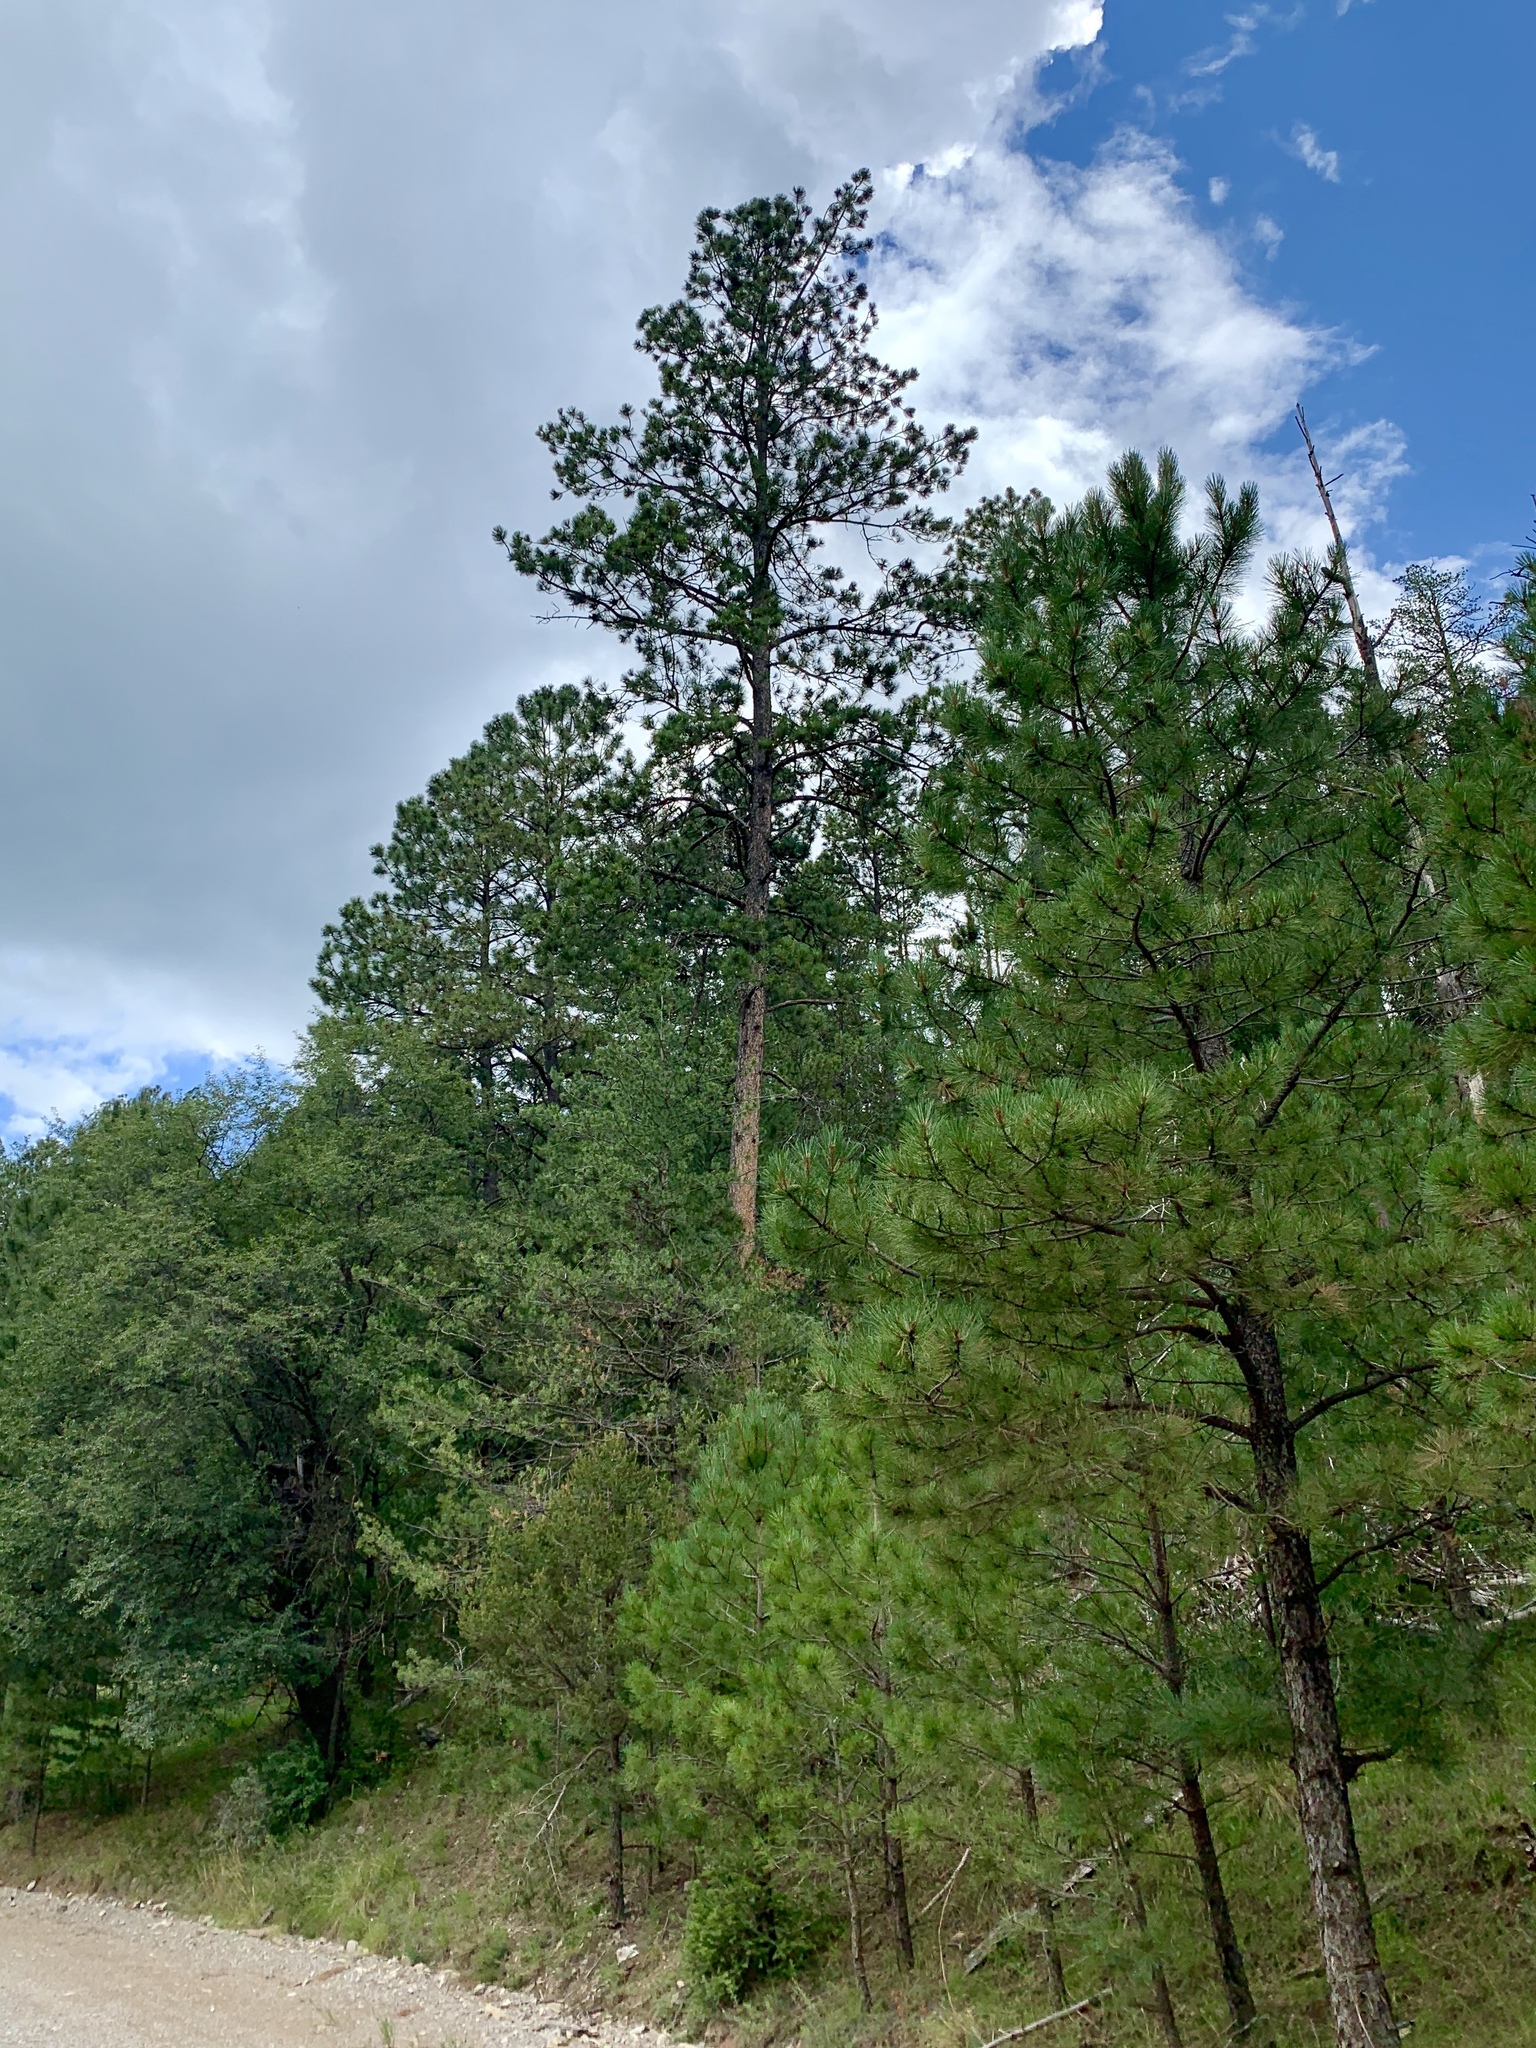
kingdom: Plantae
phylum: Tracheophyta
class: Pinopsida
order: Pinales
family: Pinaceae
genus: Pinus
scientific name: Pinus ponderosa
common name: Western yellow-pine
